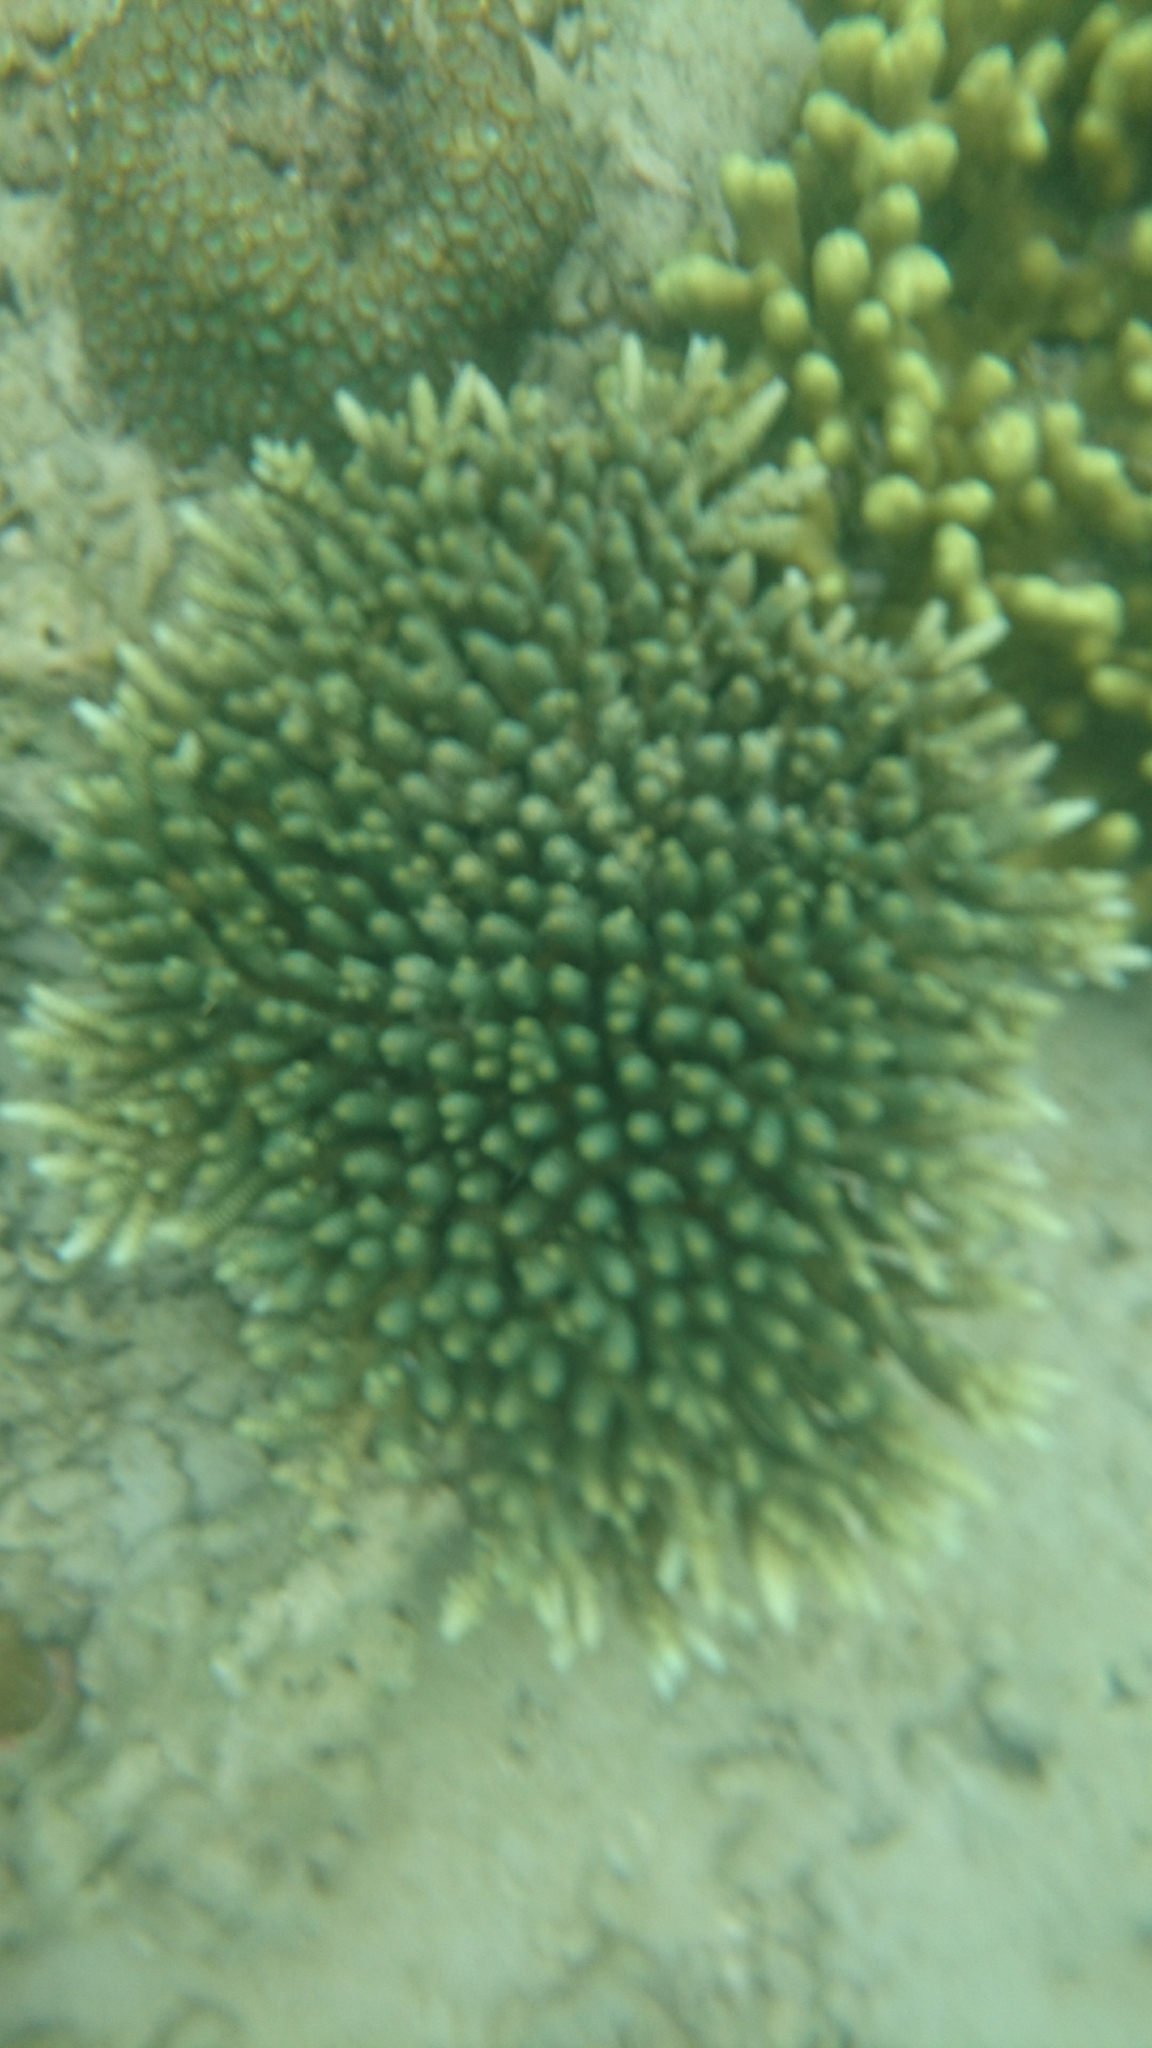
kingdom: Animalia
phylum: Cnidaria
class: Anthozoa
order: Scleractinia
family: Acroporidae
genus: Acropora
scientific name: Acropora
